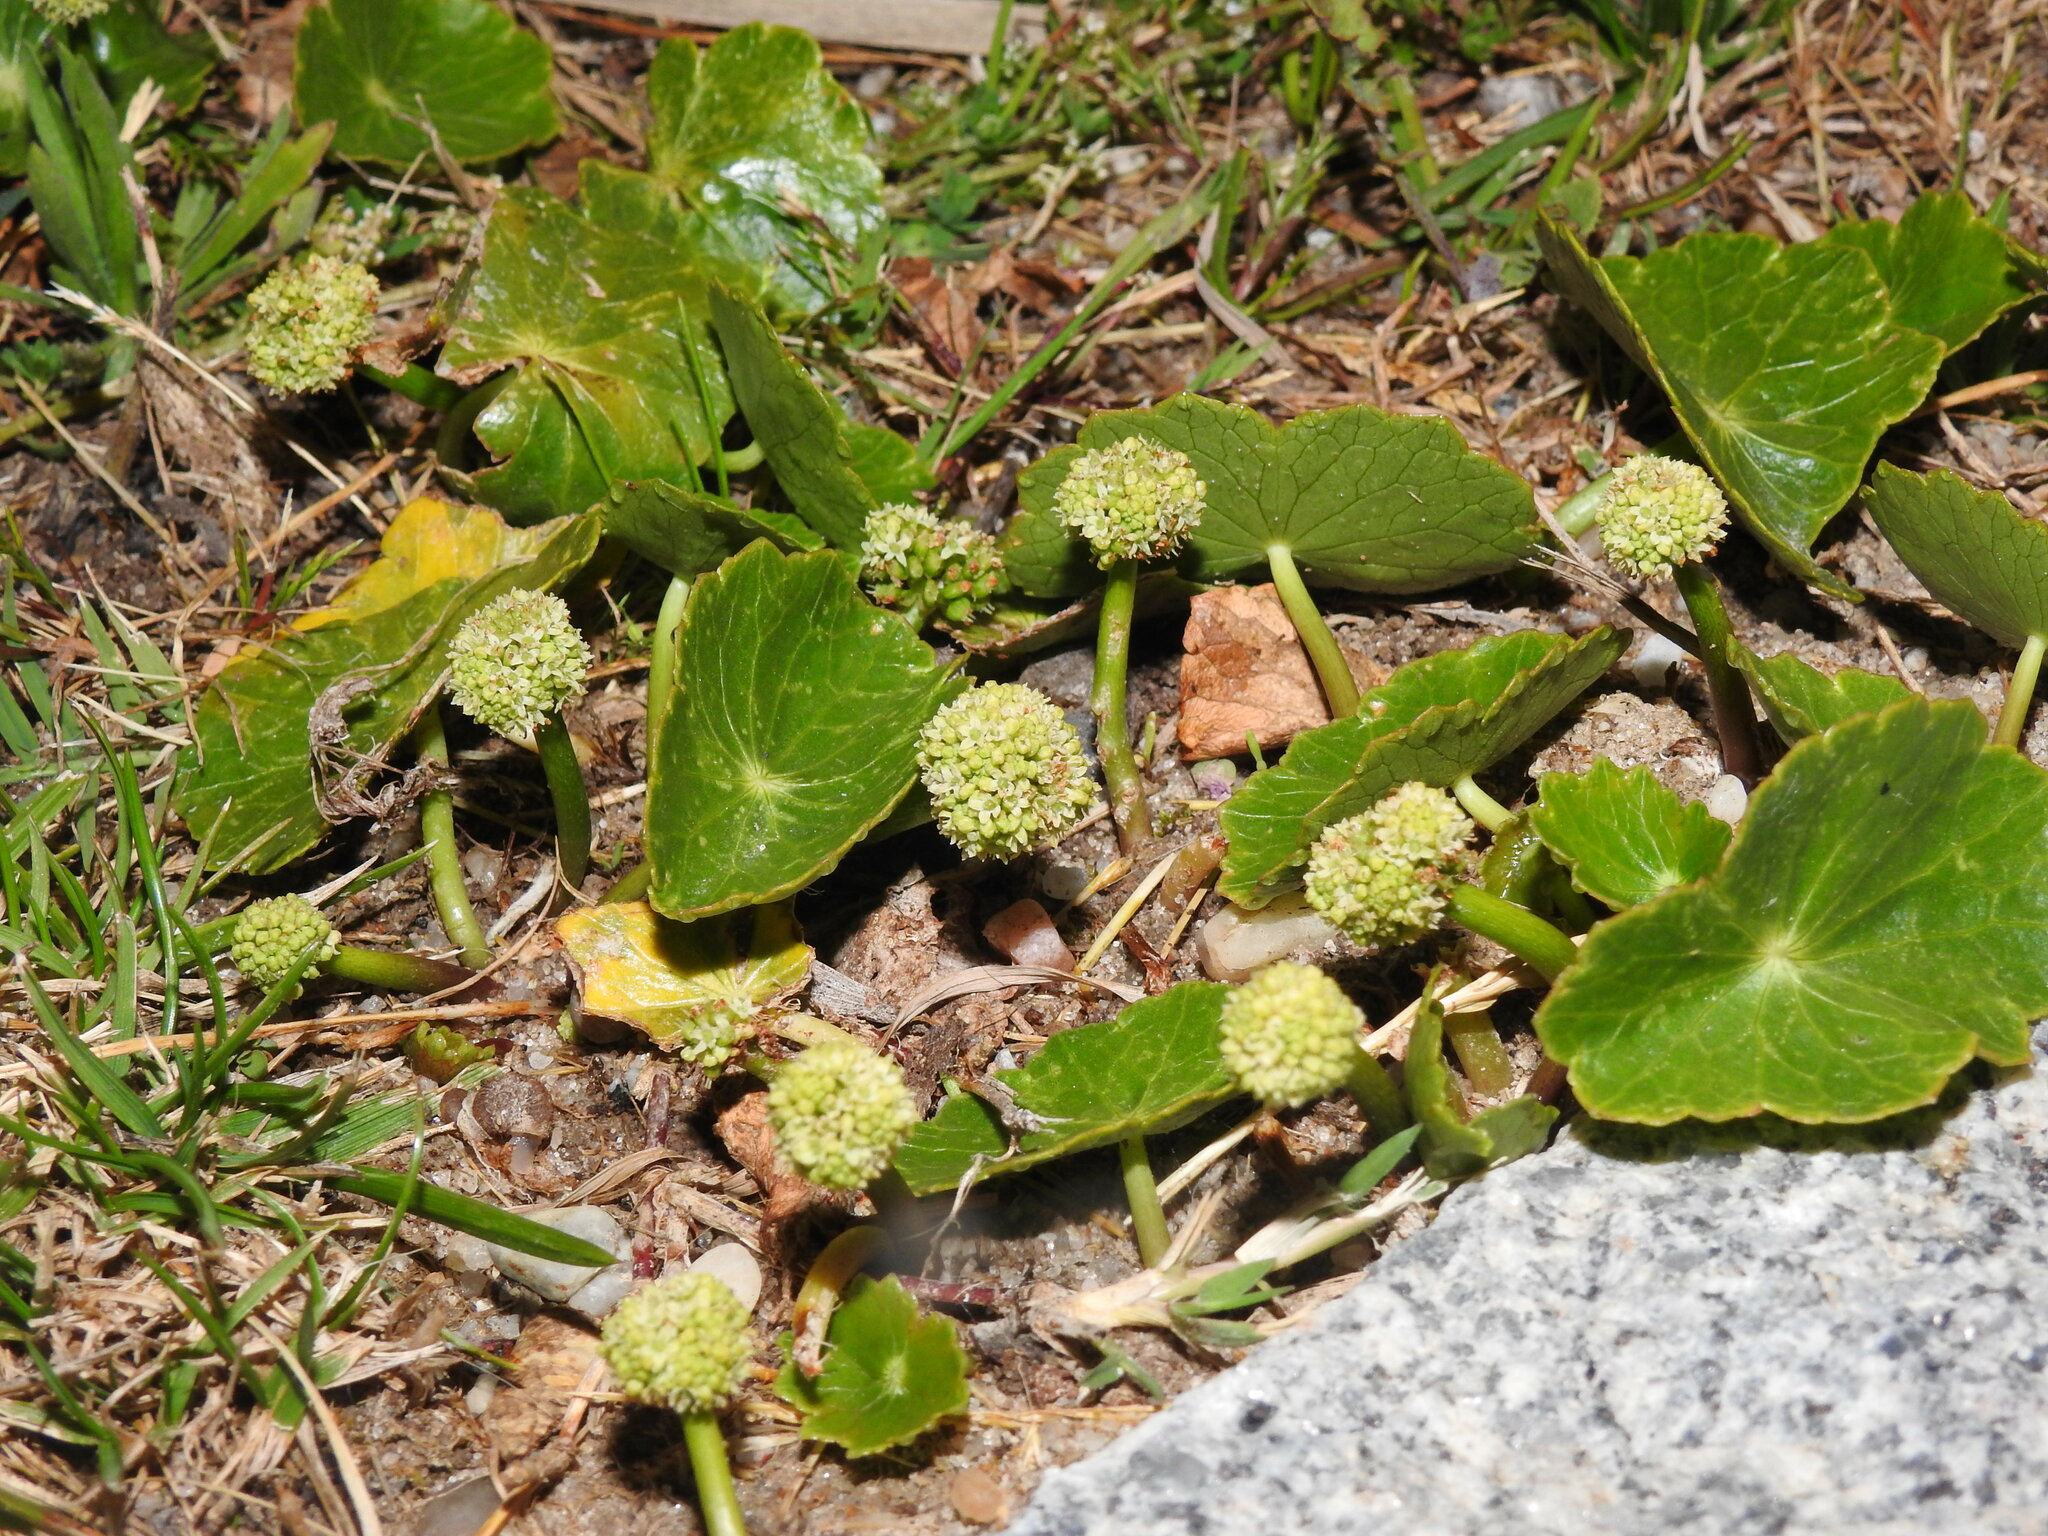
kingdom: Plantae
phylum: Tracheophyta
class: Magnoliopsida
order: Apiales
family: Araliaceae
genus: Hydrocotyle
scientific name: Hydrocotyle bonariensis
